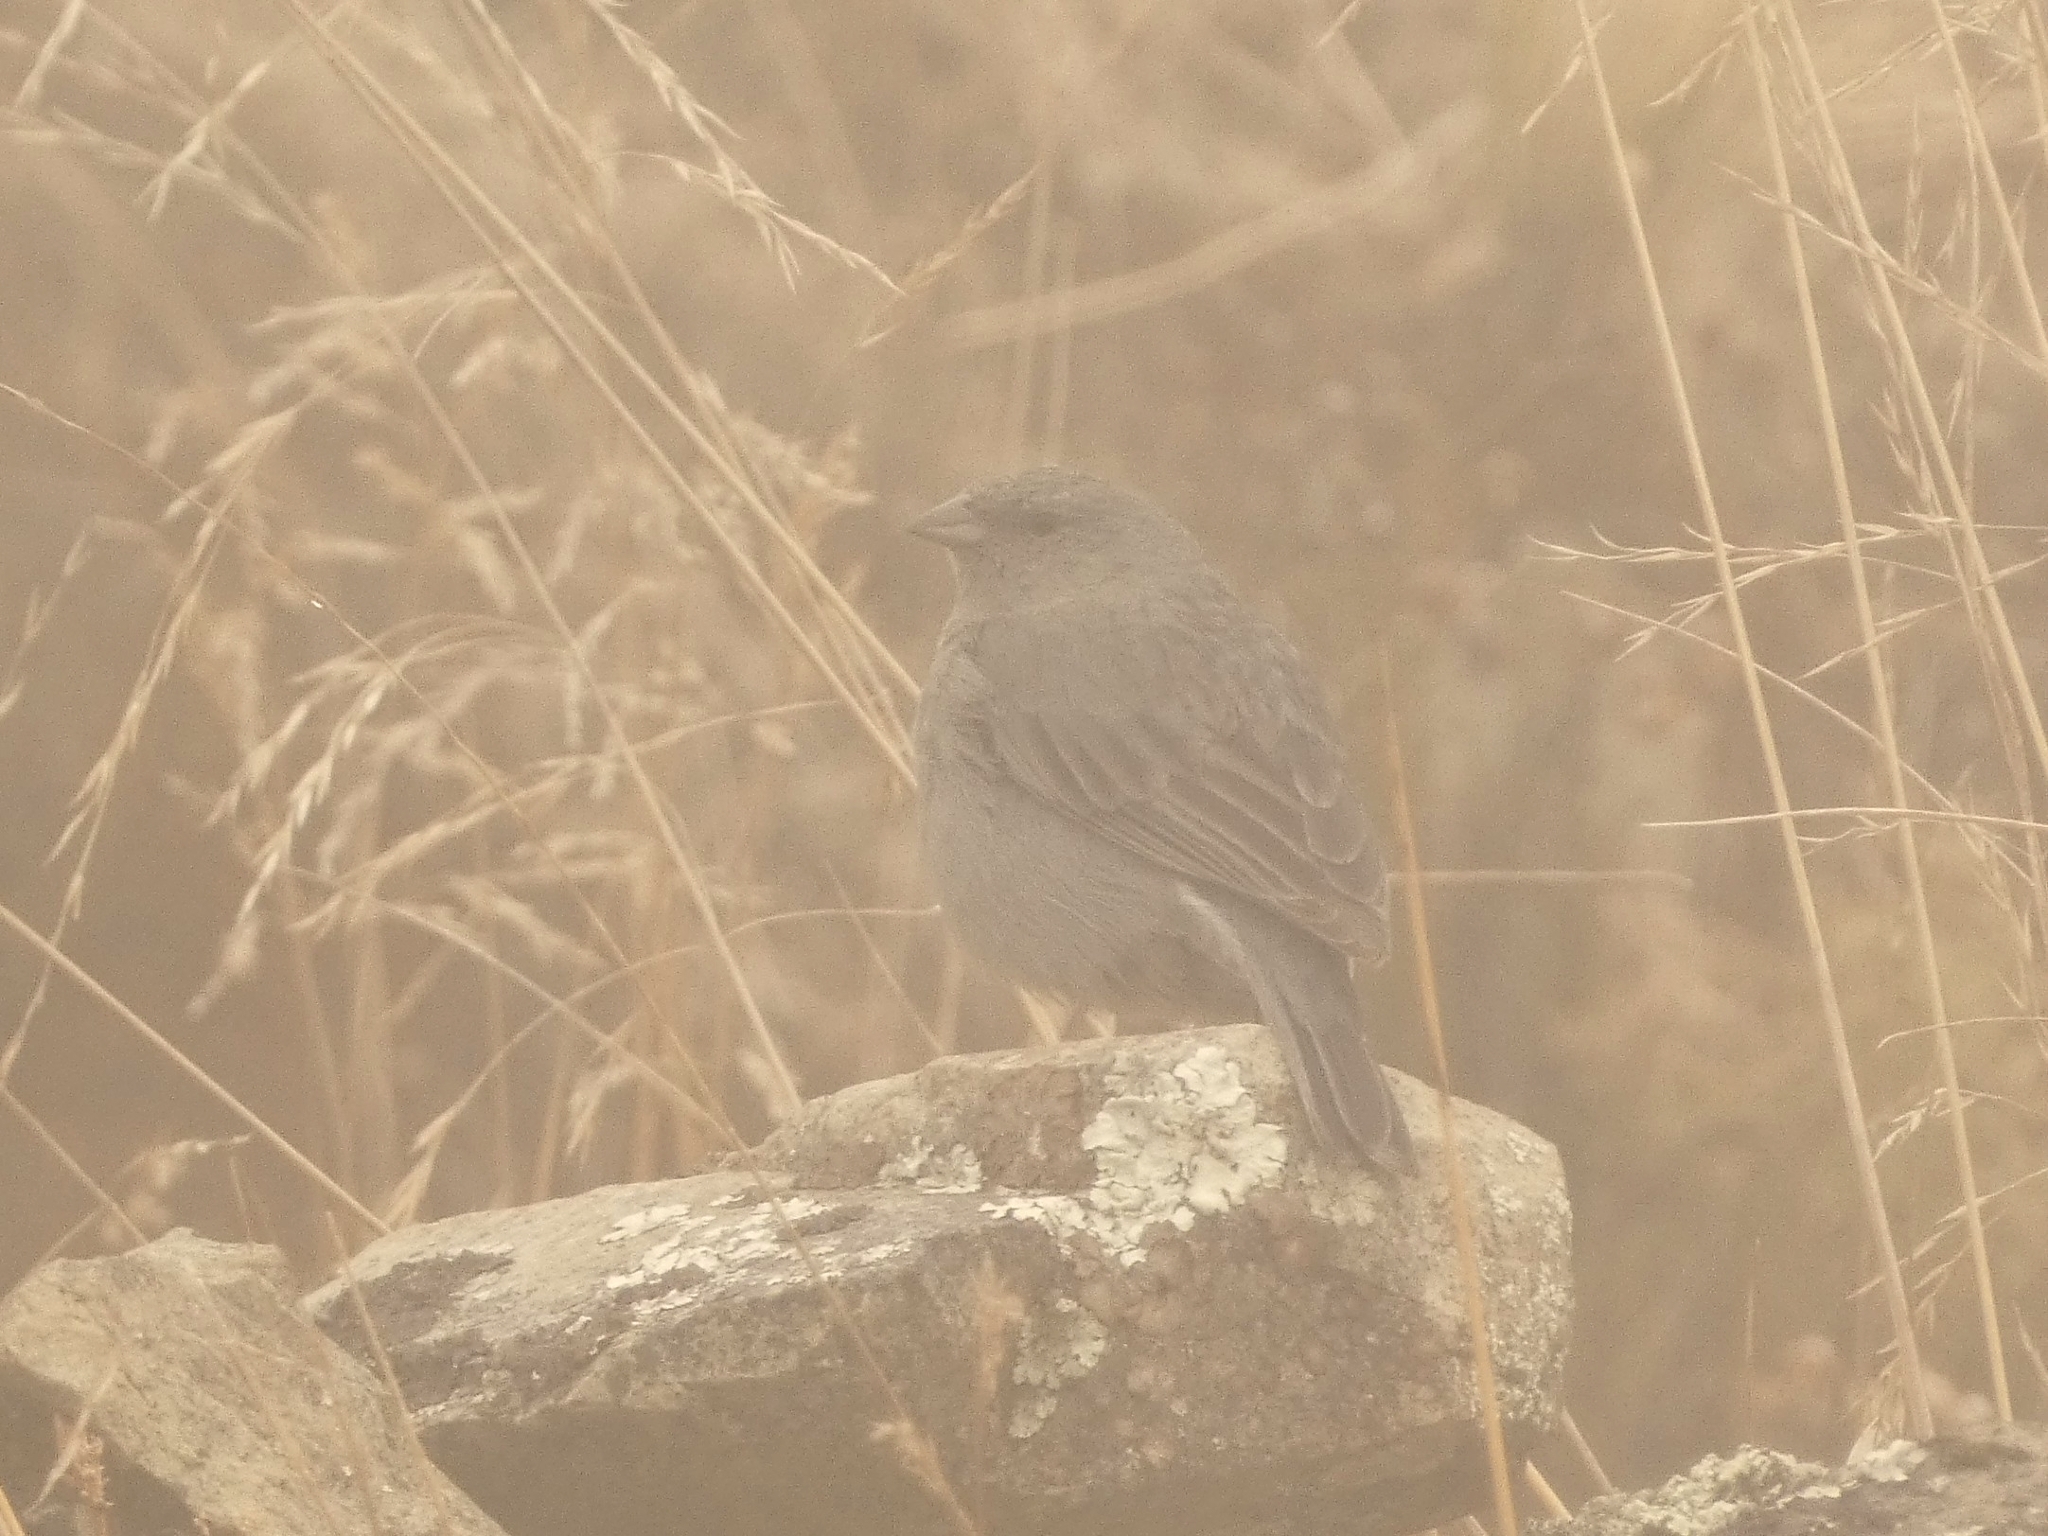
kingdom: Animalia
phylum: Chordata
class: Aves
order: Passeriformes
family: Thraupidae
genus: Geospizopsis
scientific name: Geospizopsis unicolor
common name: Plumbeous sierra-finch
